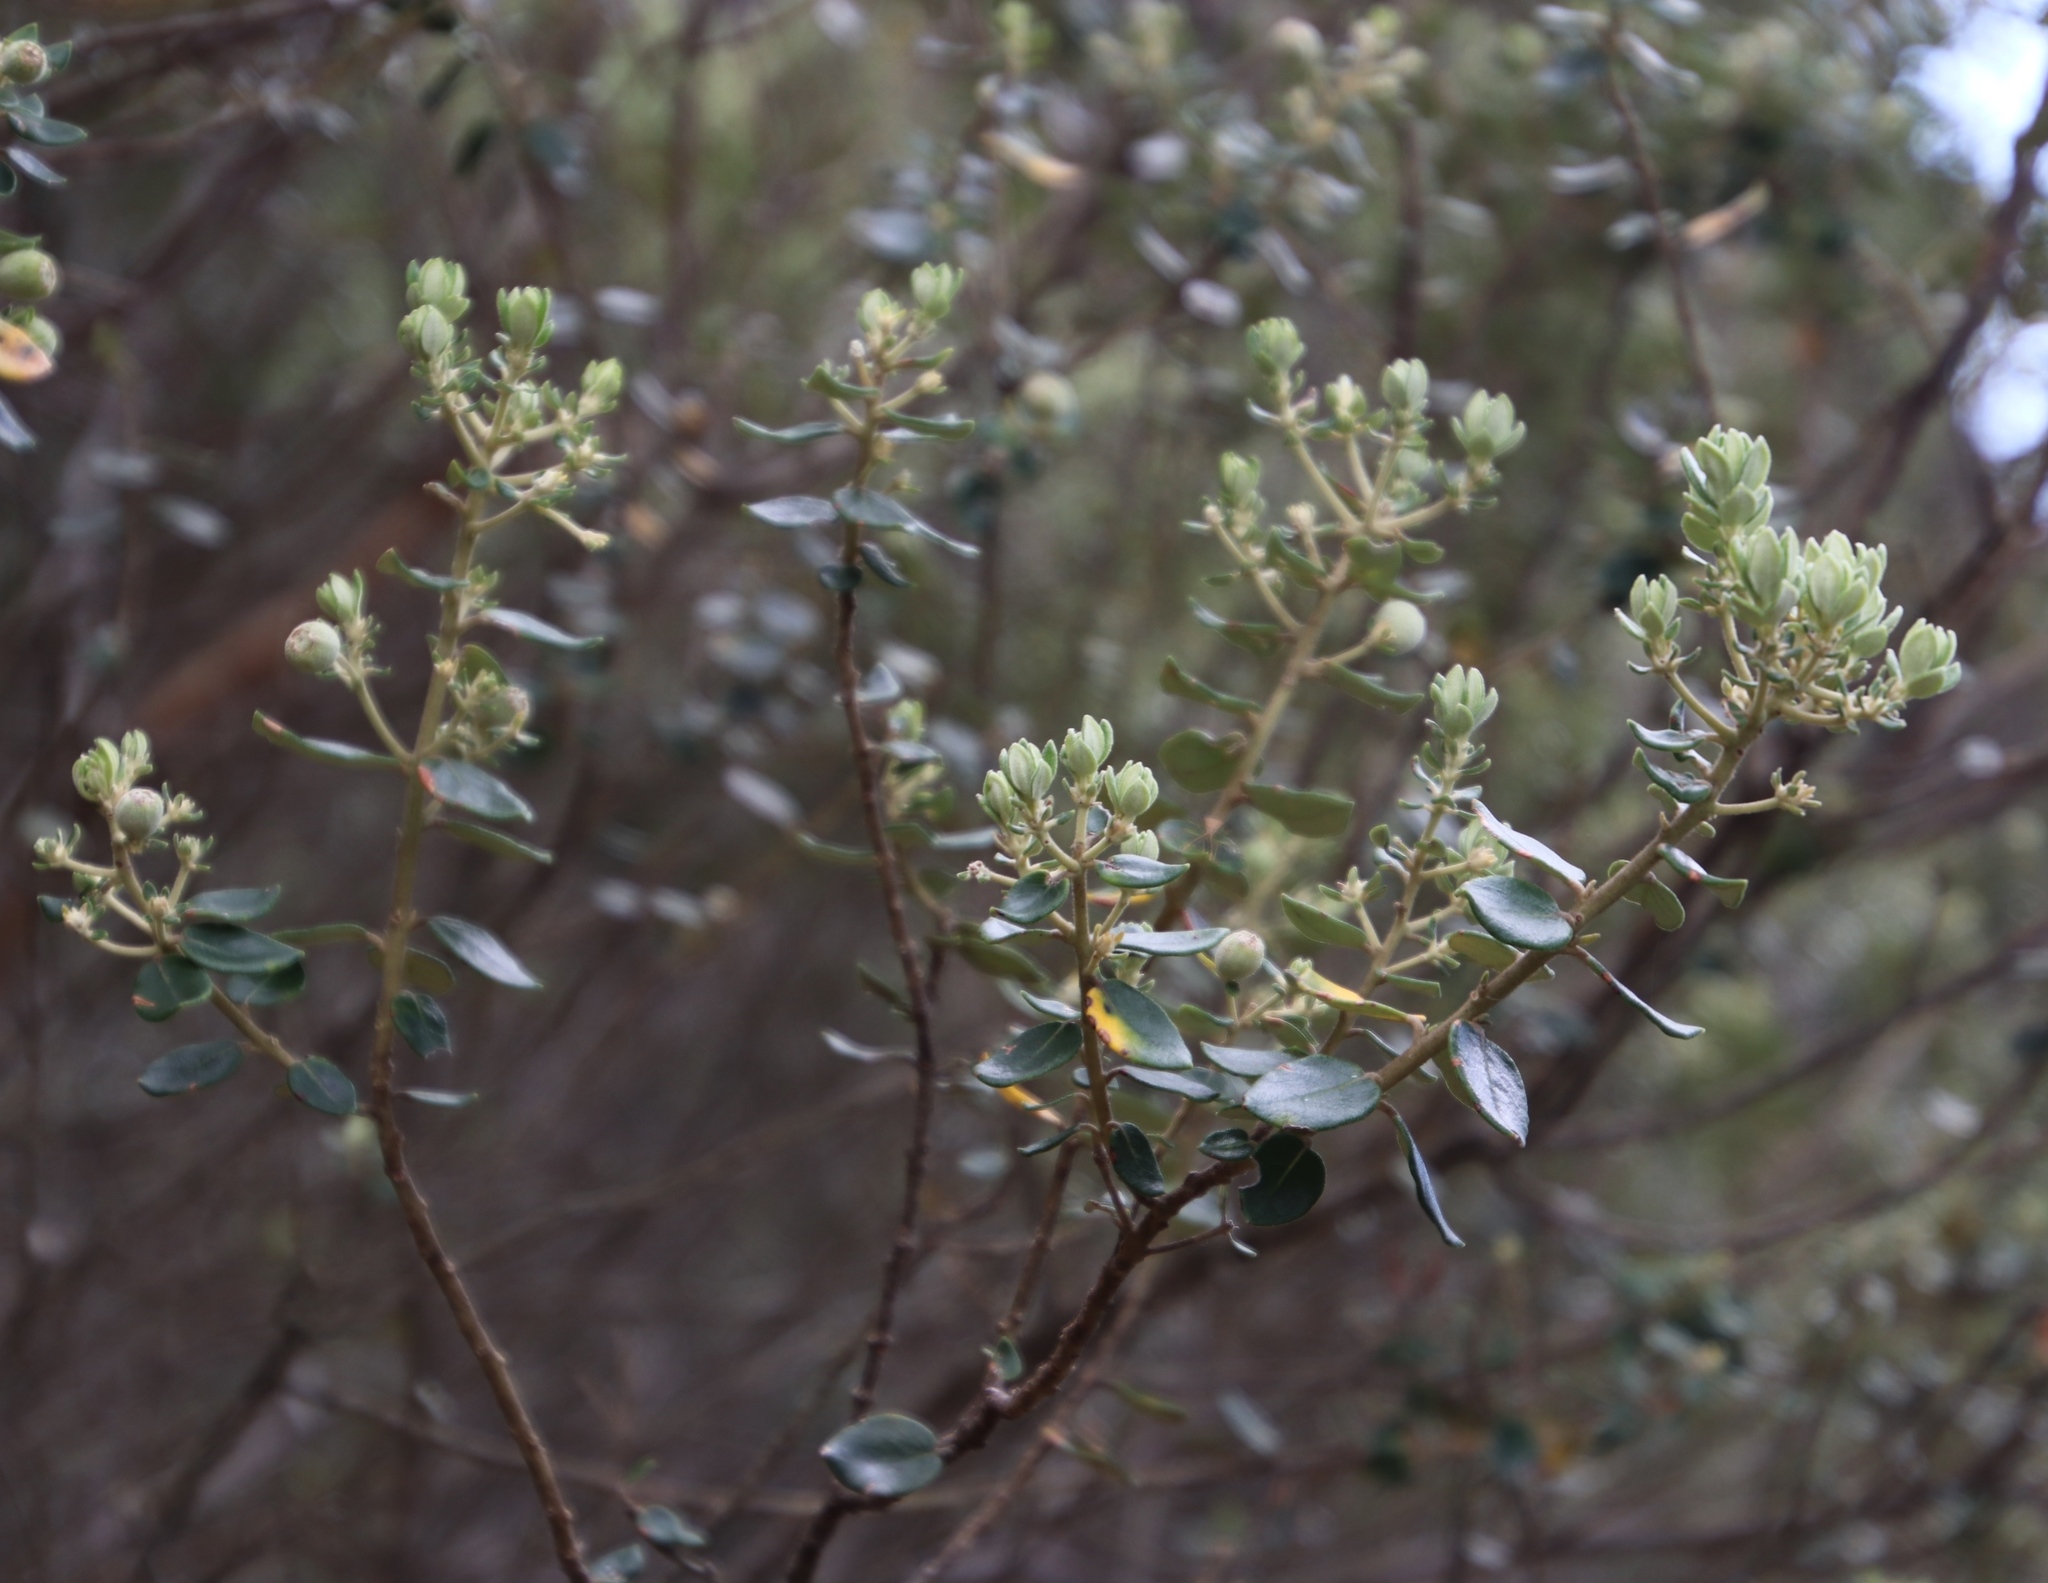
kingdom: Plantae
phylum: Tracheophyta
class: Magnoliopsida
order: Rosales
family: Rhamnaceae
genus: Phylica
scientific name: Phylica buxifolia
